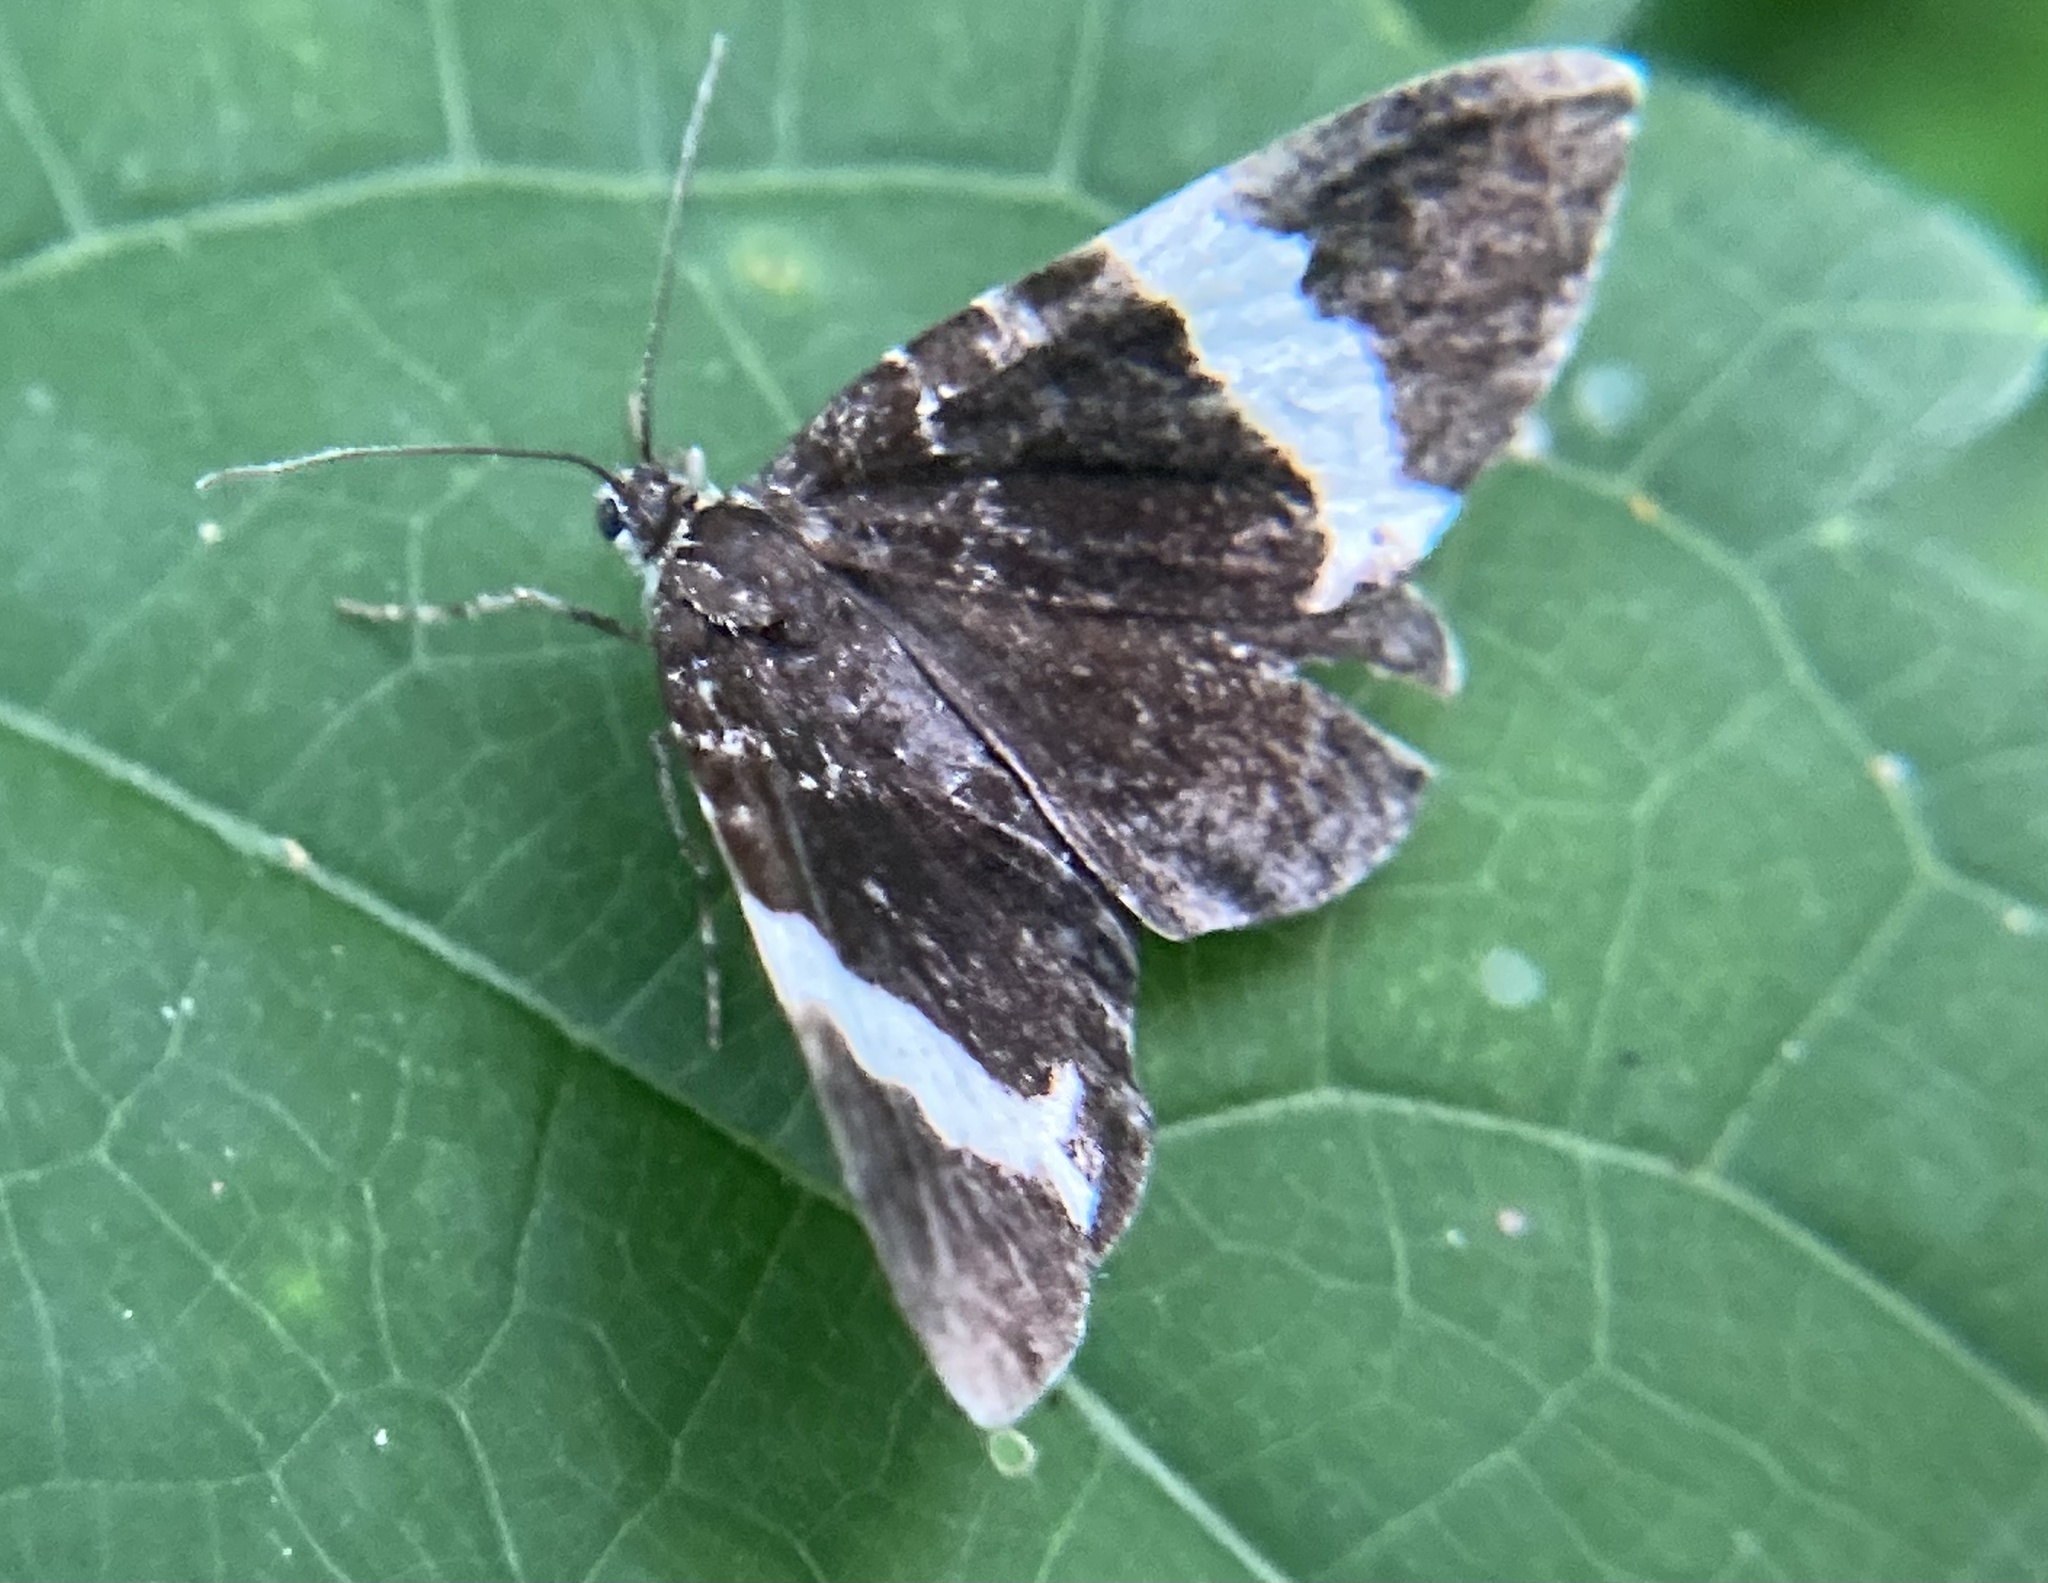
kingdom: Animalia
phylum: Arthropoda
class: Insecta
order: Lepidoptera
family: Geometridae
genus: Trichodezia
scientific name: Trichodezia albovittata
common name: White striped black
